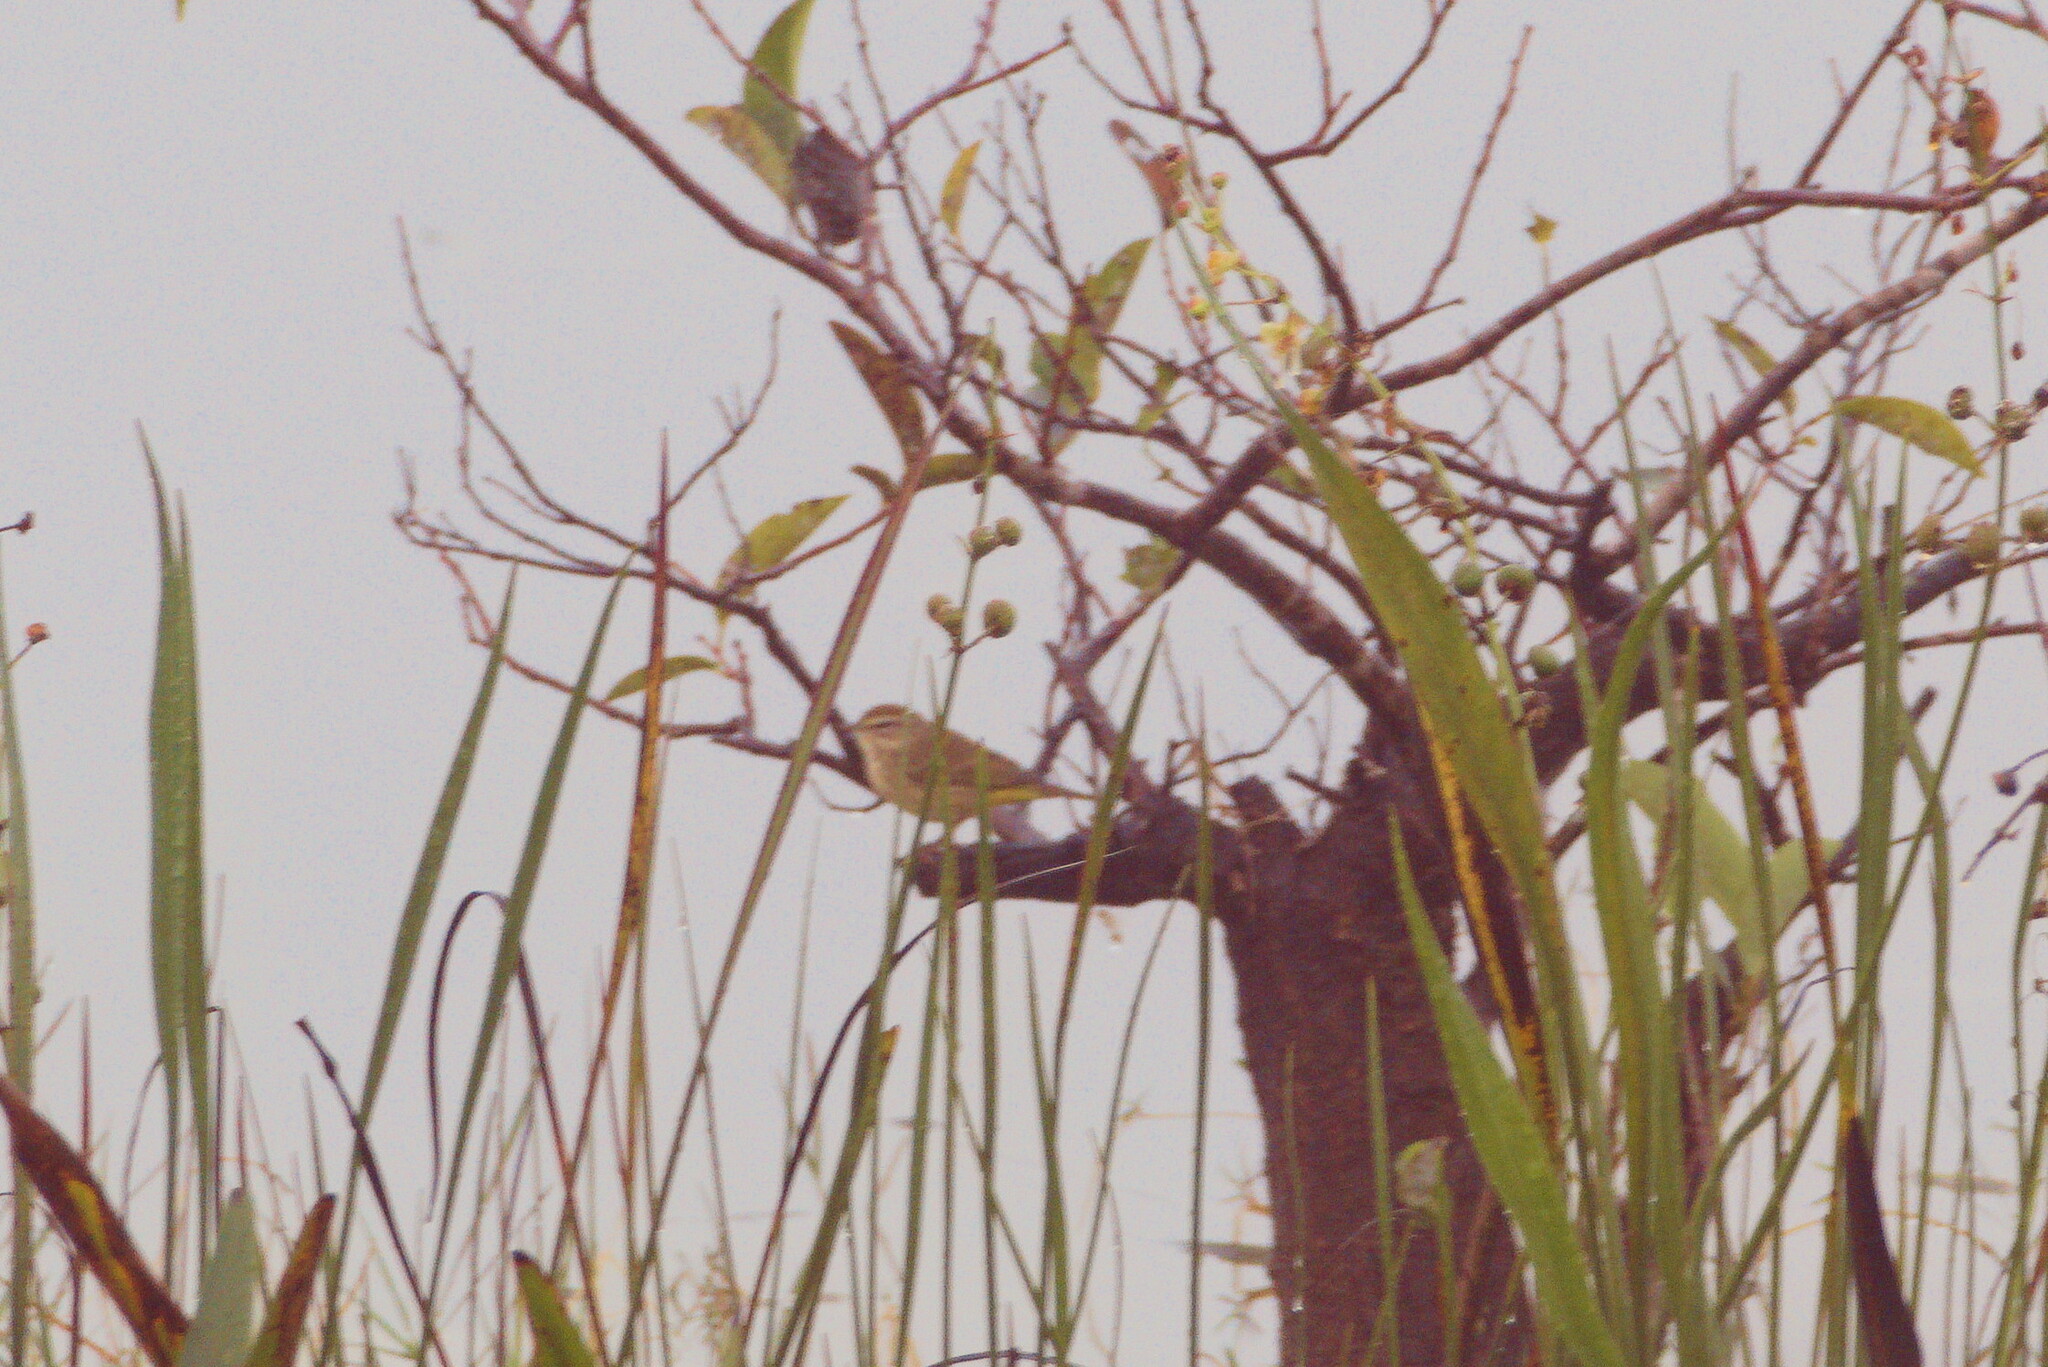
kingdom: Animalia
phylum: Chordata
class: Aves
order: Passeriformes
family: Parulidae
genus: Setophaga
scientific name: Setophaga palmarum
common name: Palm warbler
